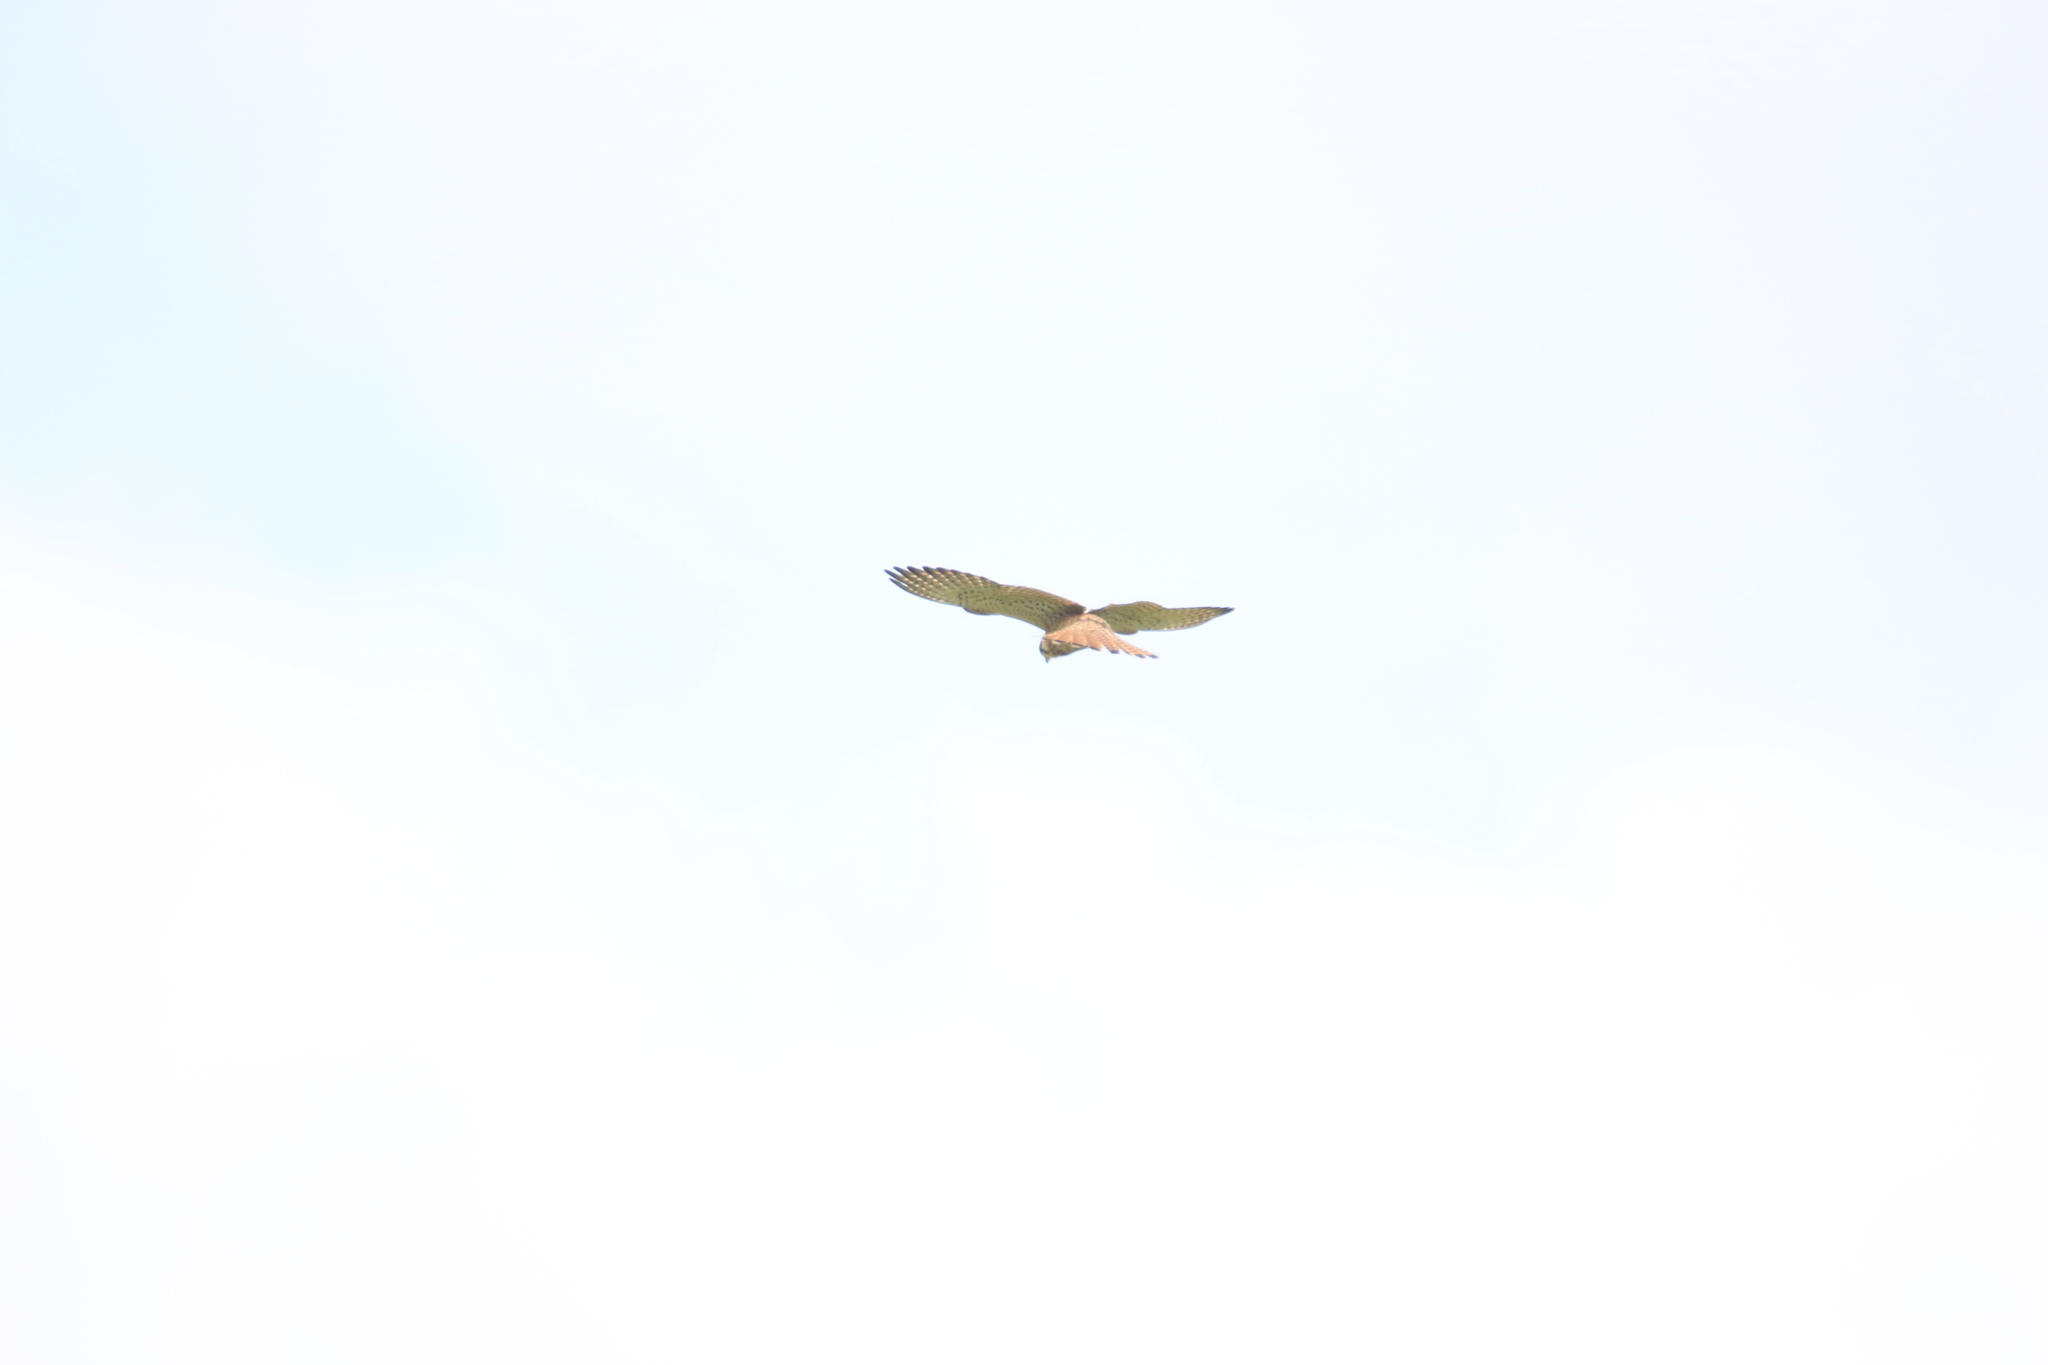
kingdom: Animalia
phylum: Chordata
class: Aves
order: Falconiformes
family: Falconidae
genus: Falco
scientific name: Falco tinnunculus
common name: Common kestrel
